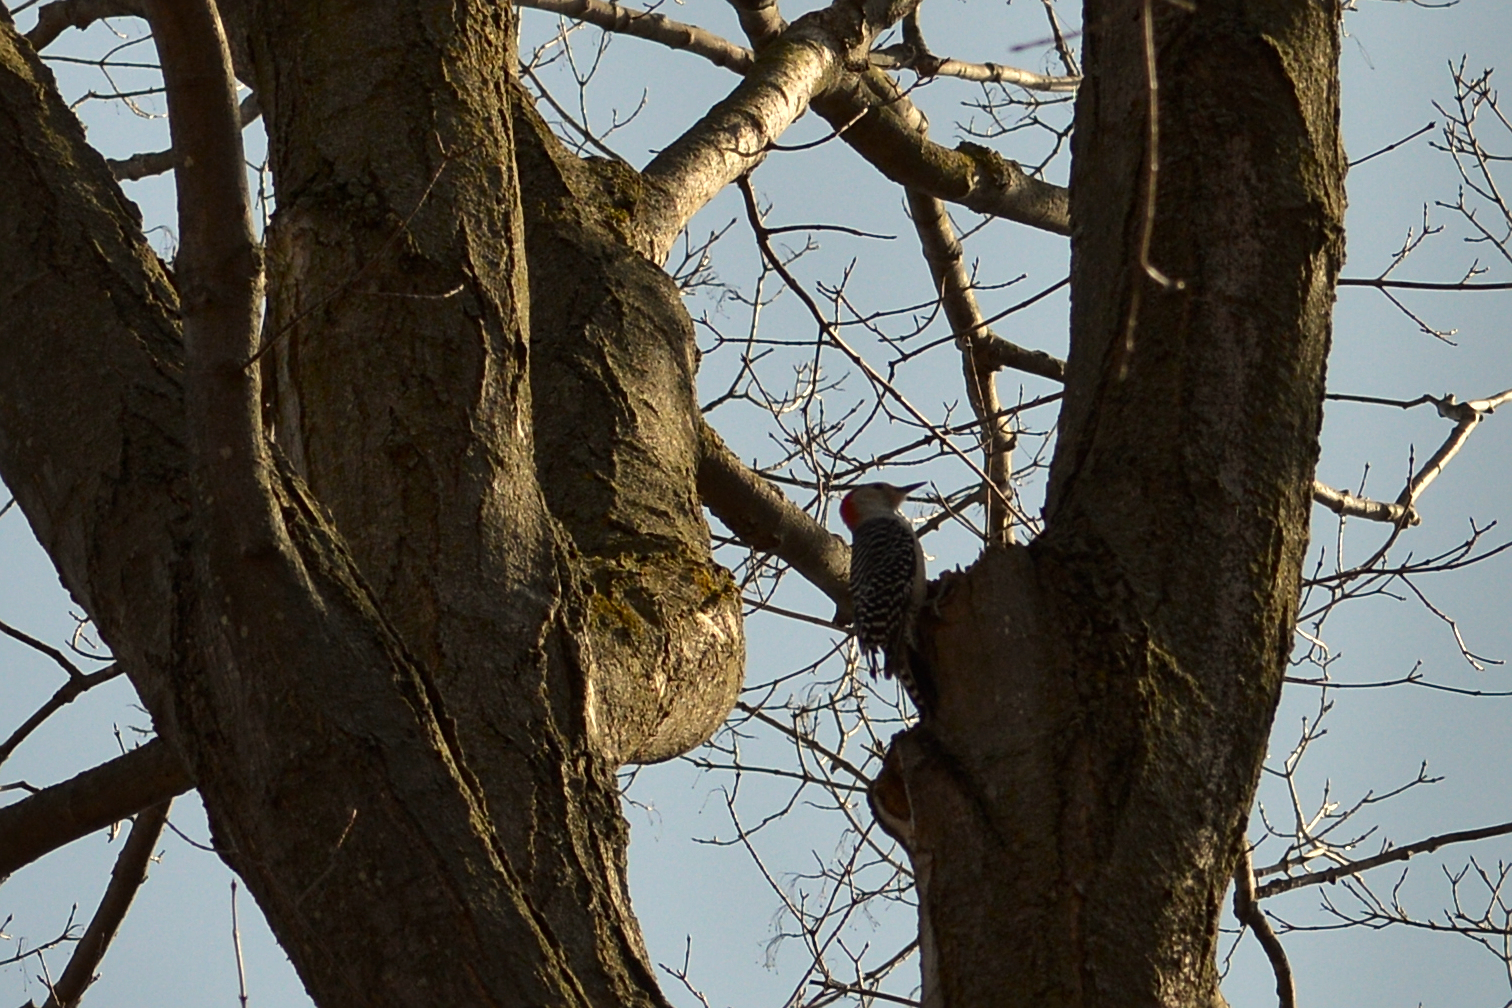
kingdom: Animalia
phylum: Chordata
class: Aves
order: Piciformes
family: Picidae
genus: Melanerpes
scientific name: Melanerpes carolinus
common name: Red-bellied woodpecker
